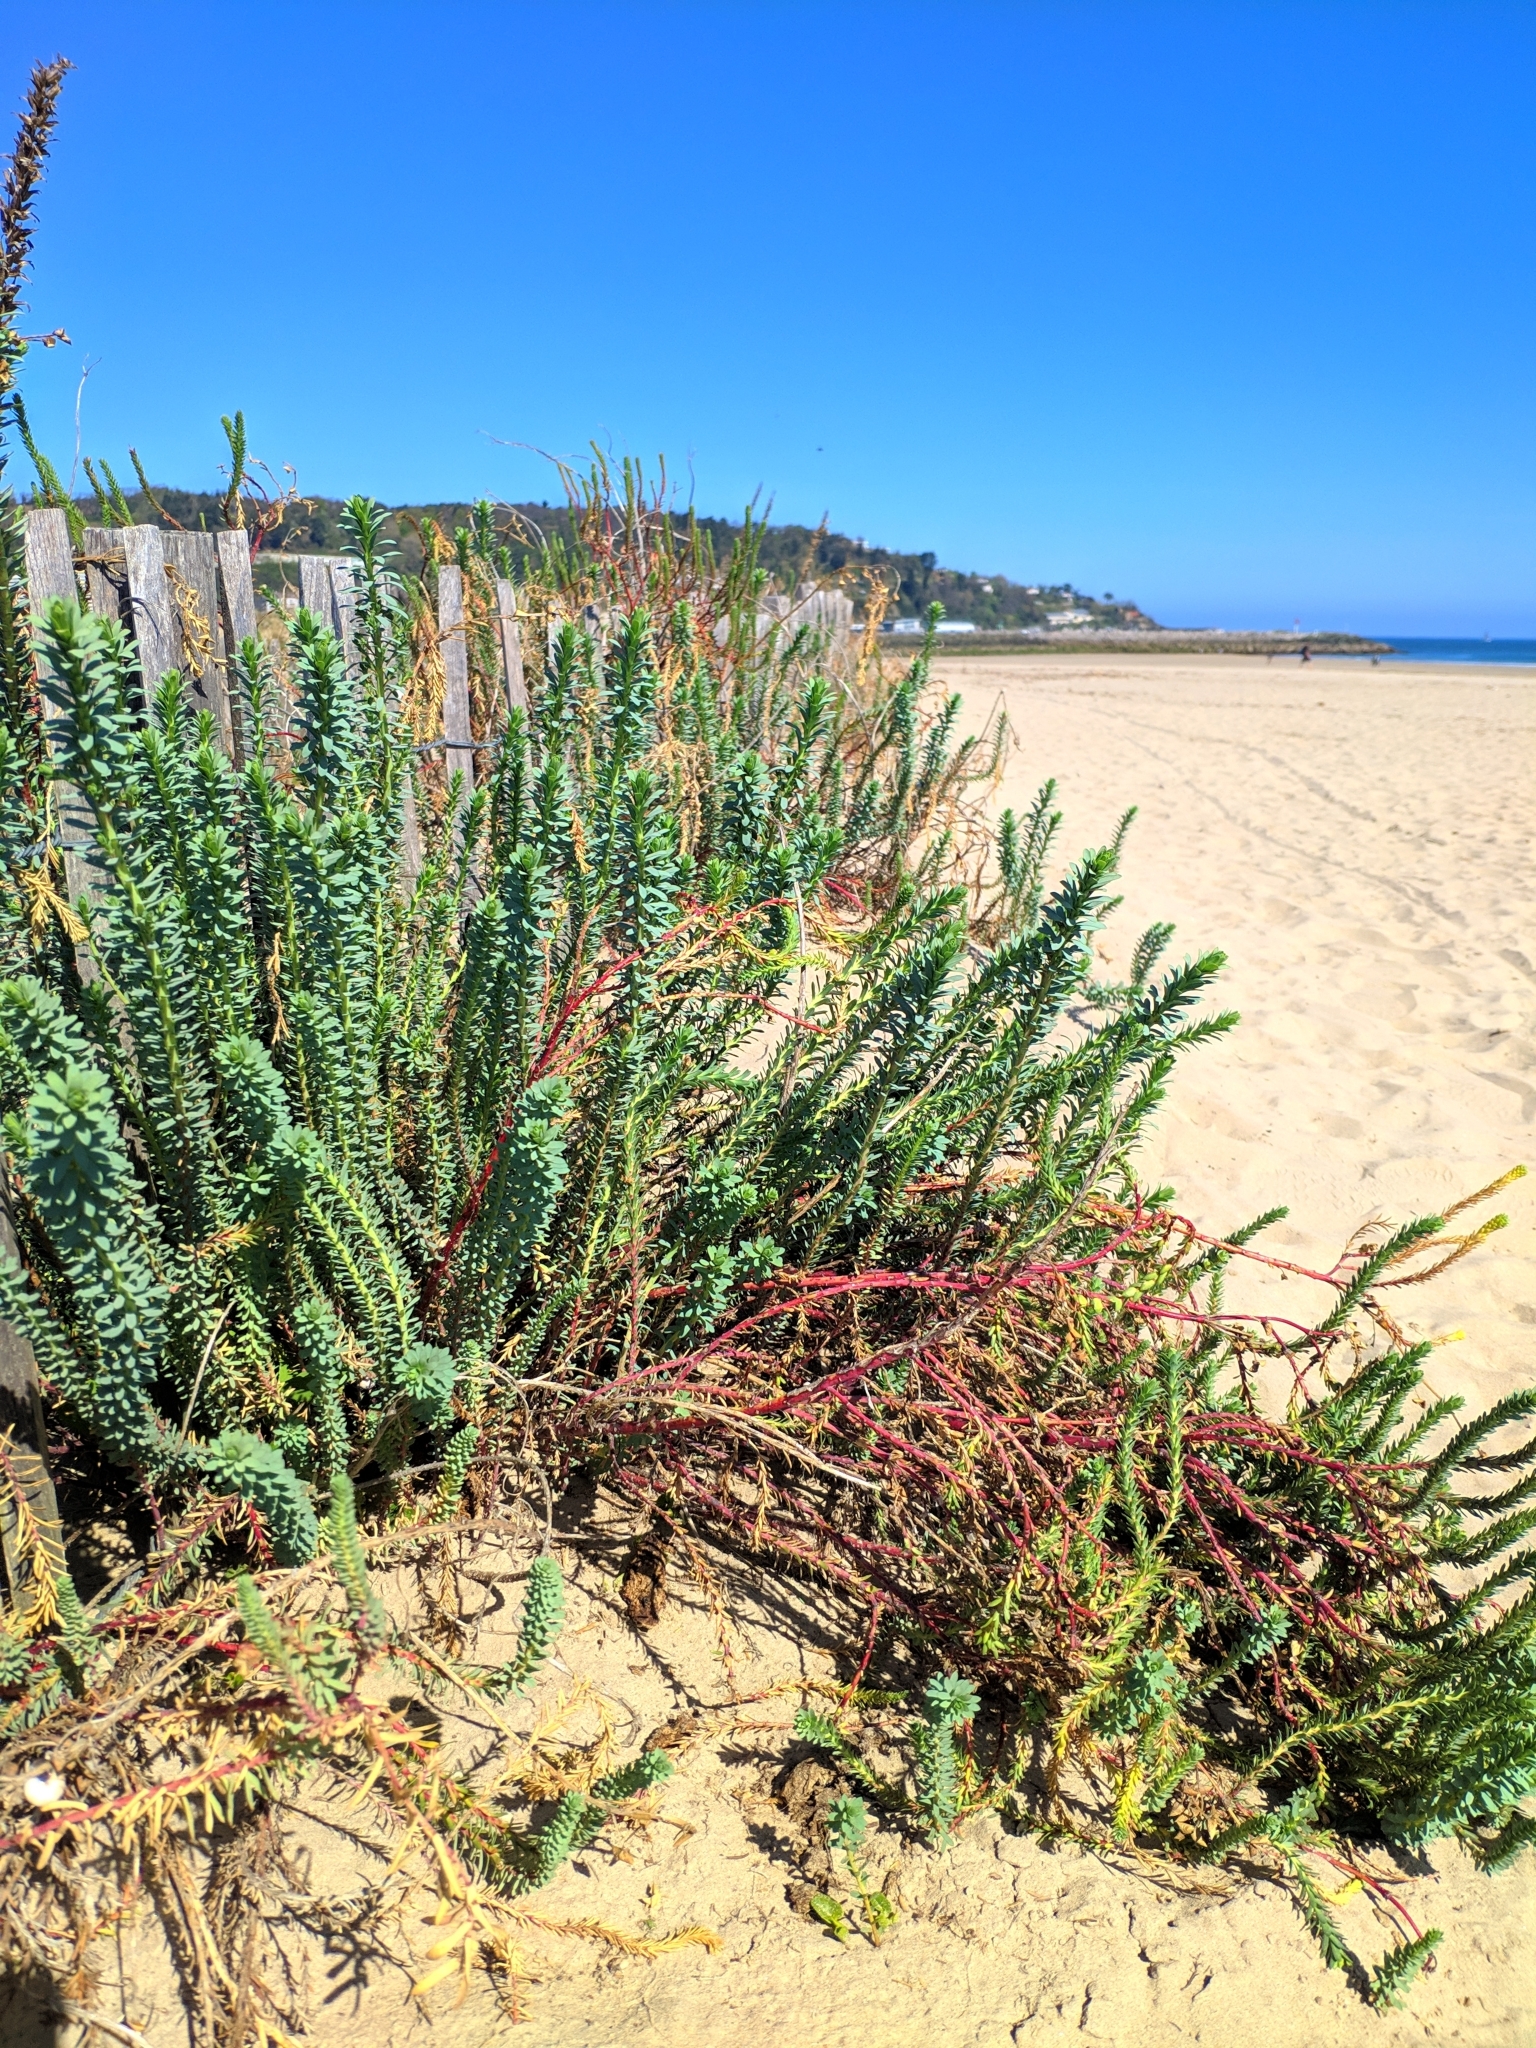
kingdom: Plantae
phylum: Tracheophyta
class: Magnoliopsida
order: Malpighiales
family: Euphorbiaceae
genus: Euphorbia
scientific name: Euphorbia paralias
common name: Sea spurge
